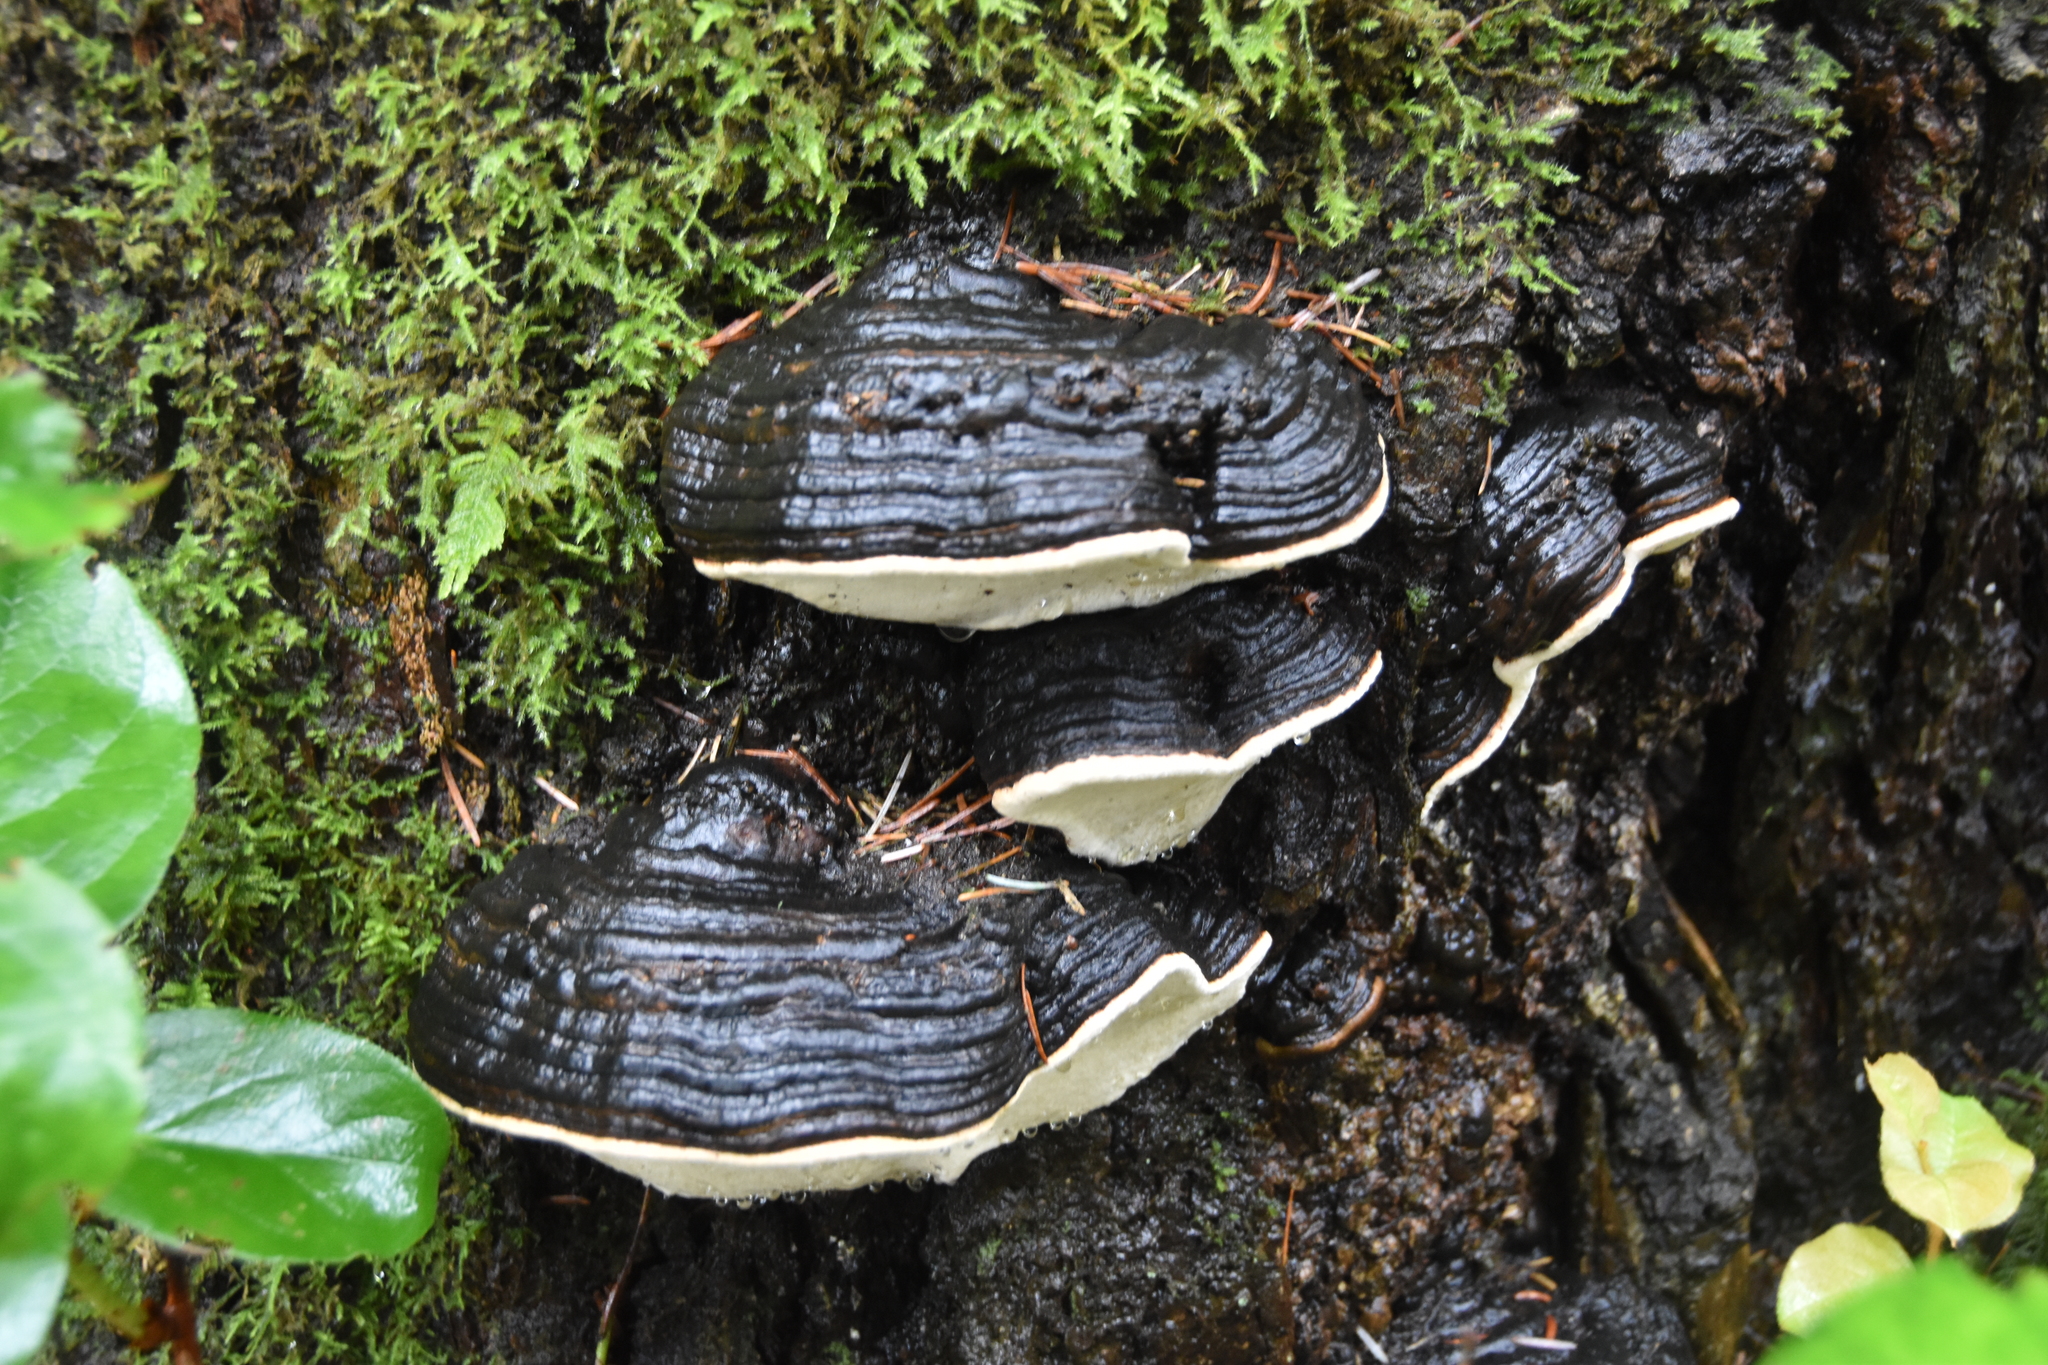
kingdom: Fungi
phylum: Basidiomycota
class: Agaricomycetes
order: Polyporales
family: Fomitopsidaceae
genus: Fomitopsis
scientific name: Fomitopsis ochracea
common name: American brown fomitopsis
